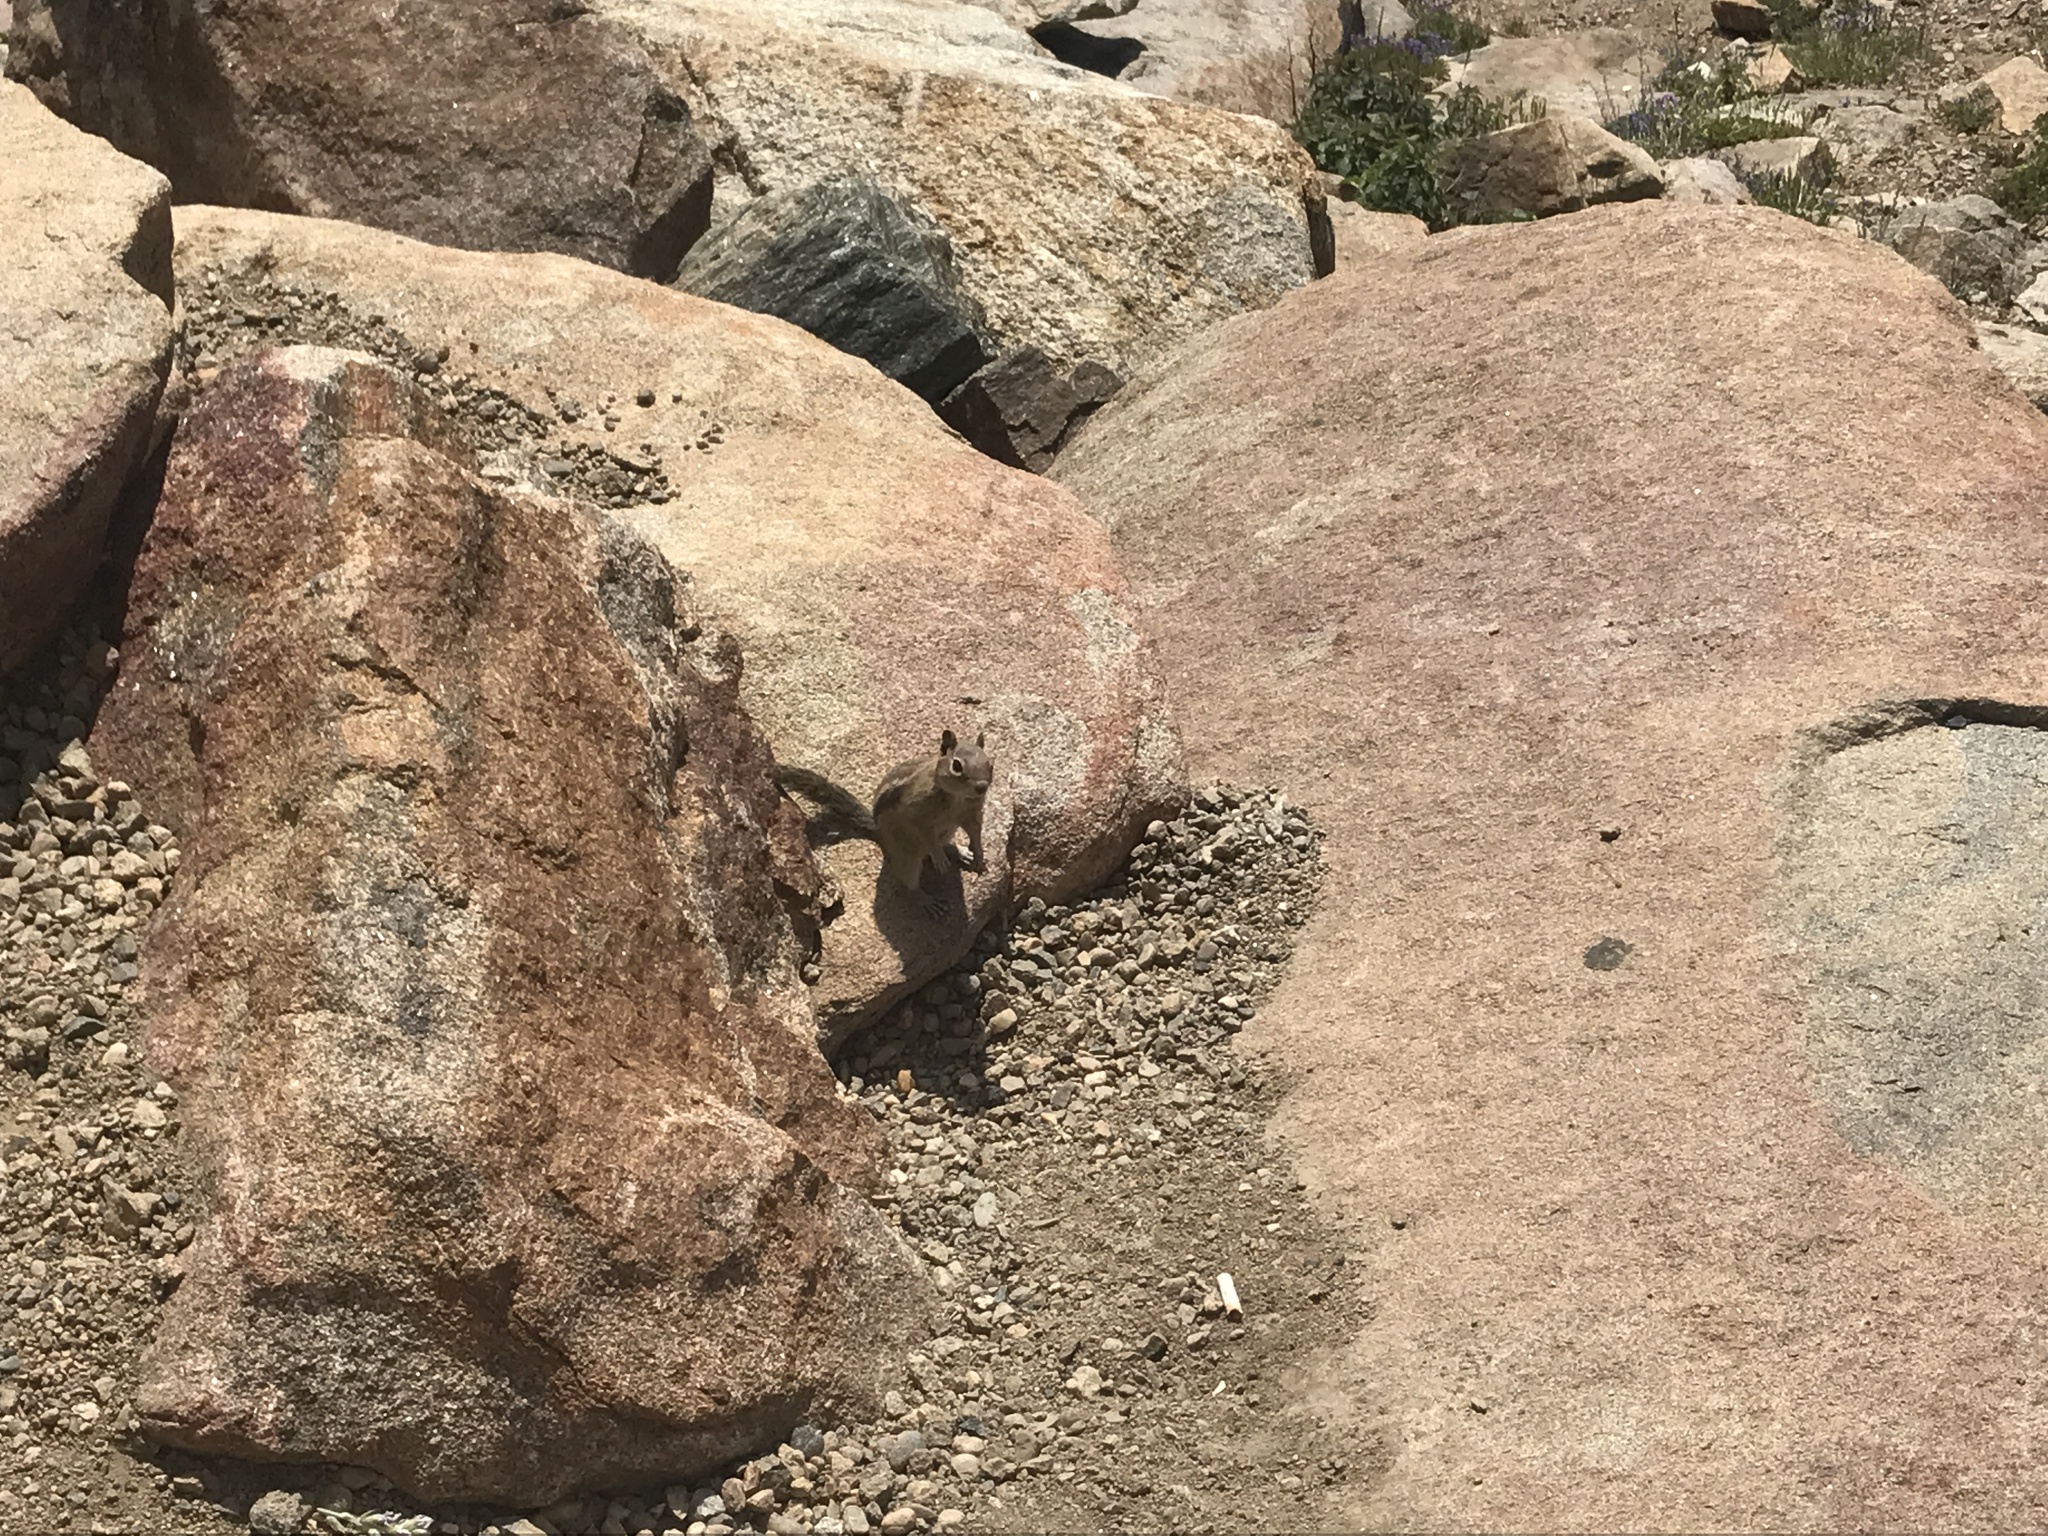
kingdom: Animalia
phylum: Chordata
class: Mammalia
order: Rodentia
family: Sciuridae
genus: Callospermophilus
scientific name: Callospermophilus lateralis
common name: Golden-mantled ground squirrel
